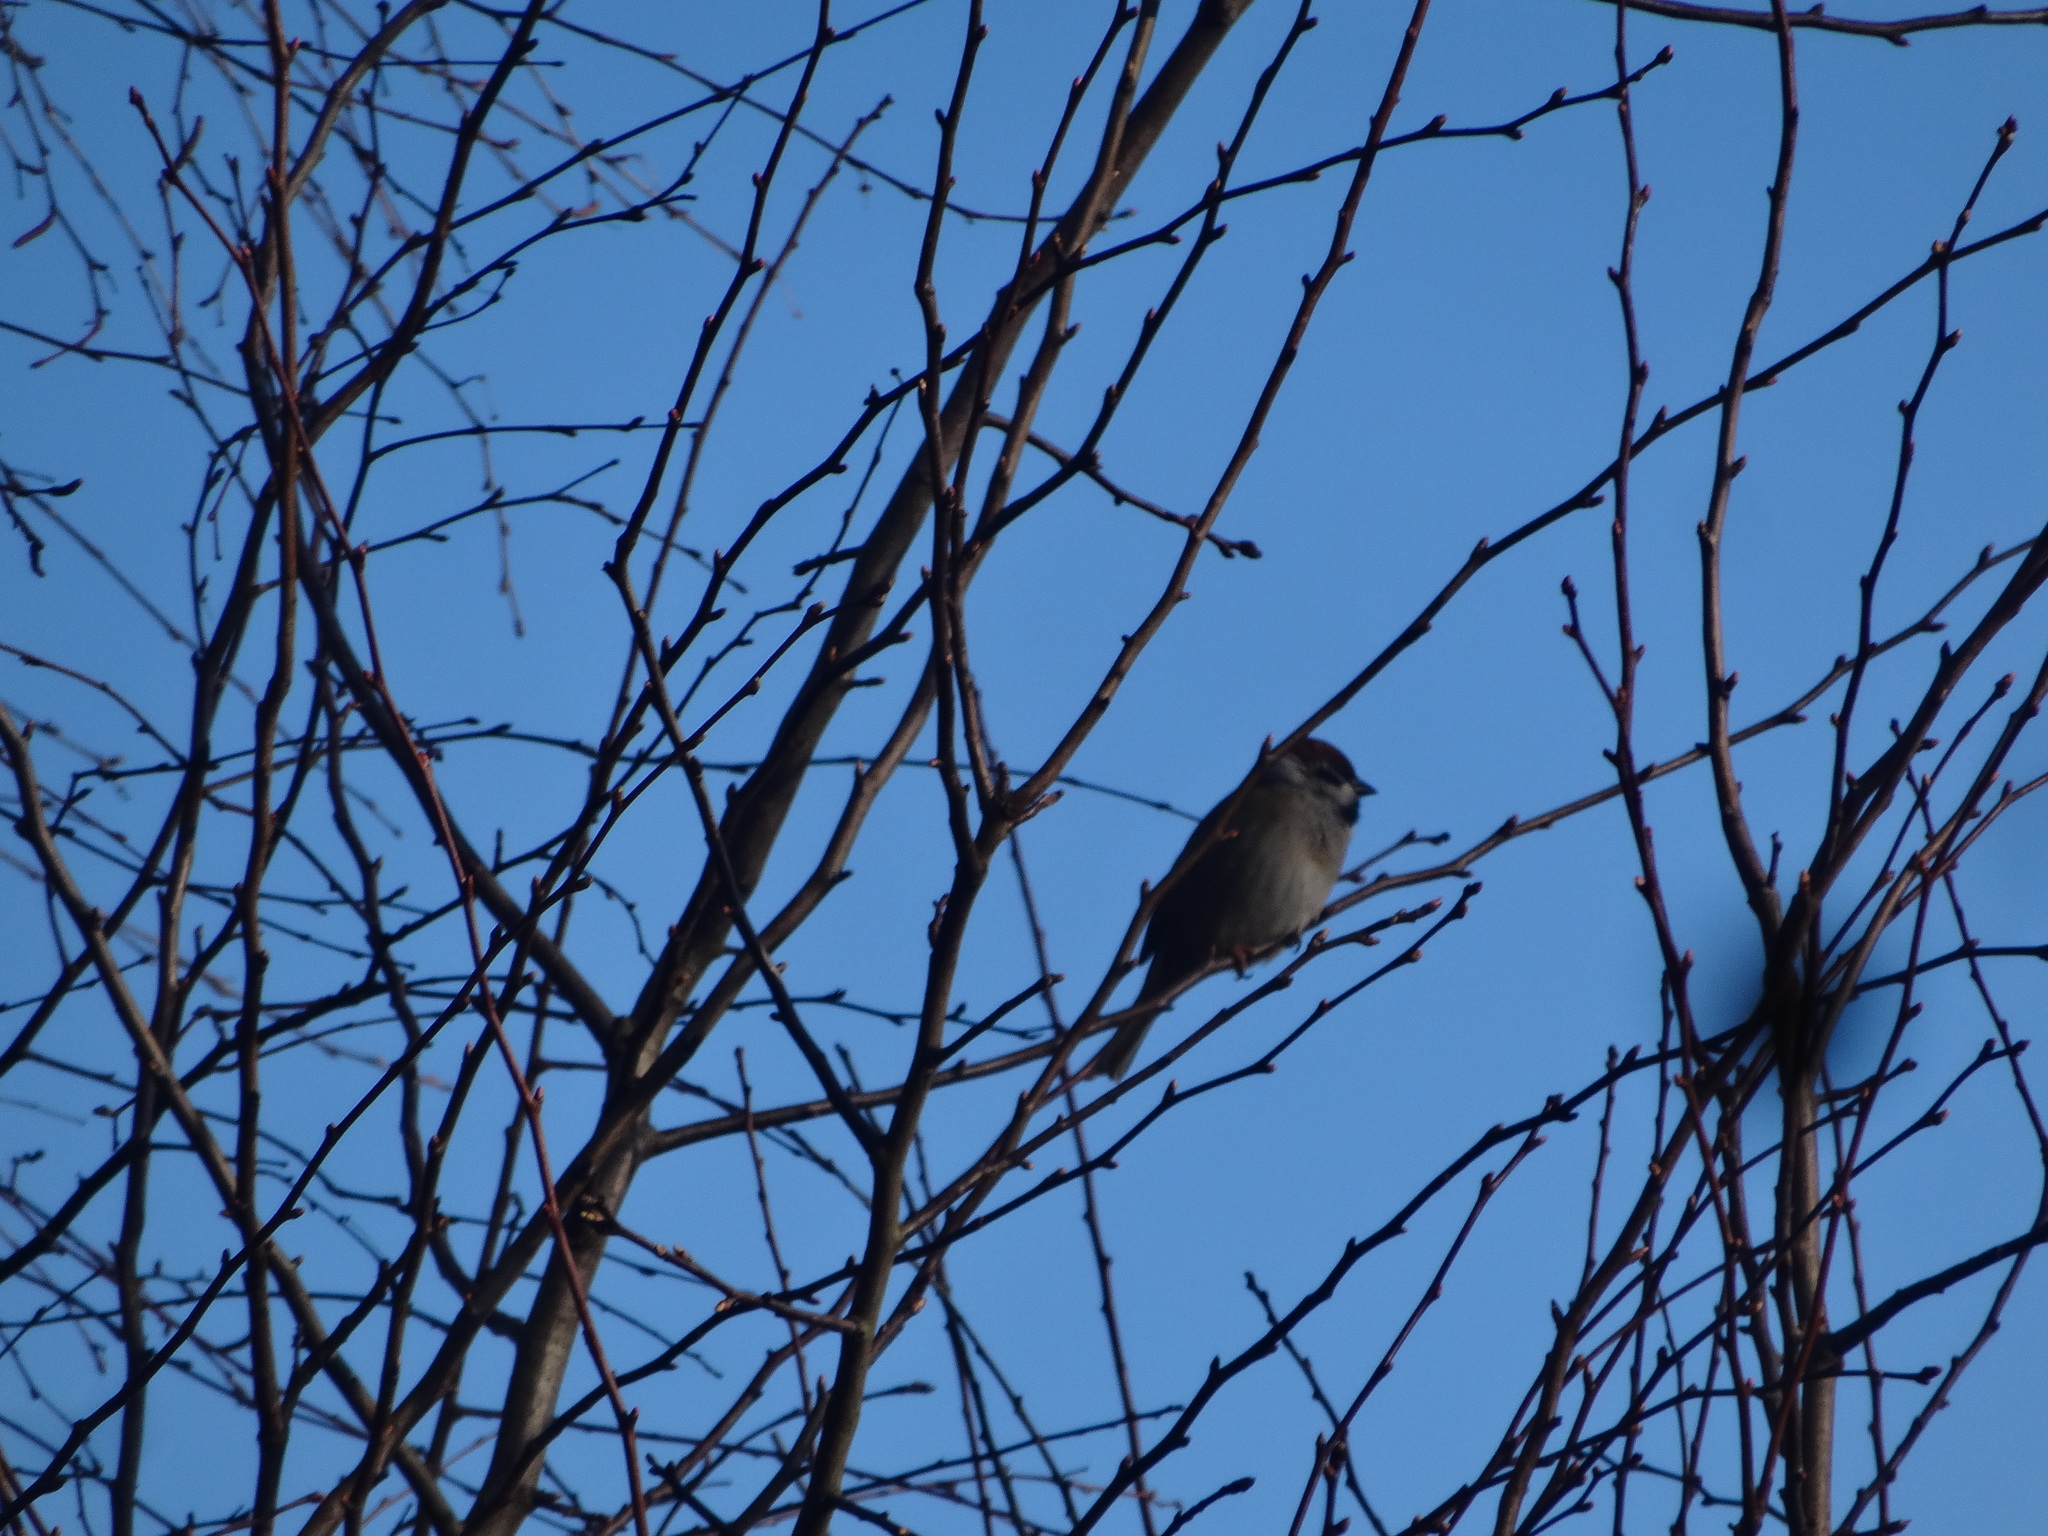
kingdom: Animalia
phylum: Chordata
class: Aves
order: Passeriformes
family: Passeridae
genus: Passer
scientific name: Passer montanus
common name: Eurasian tree sparrow
